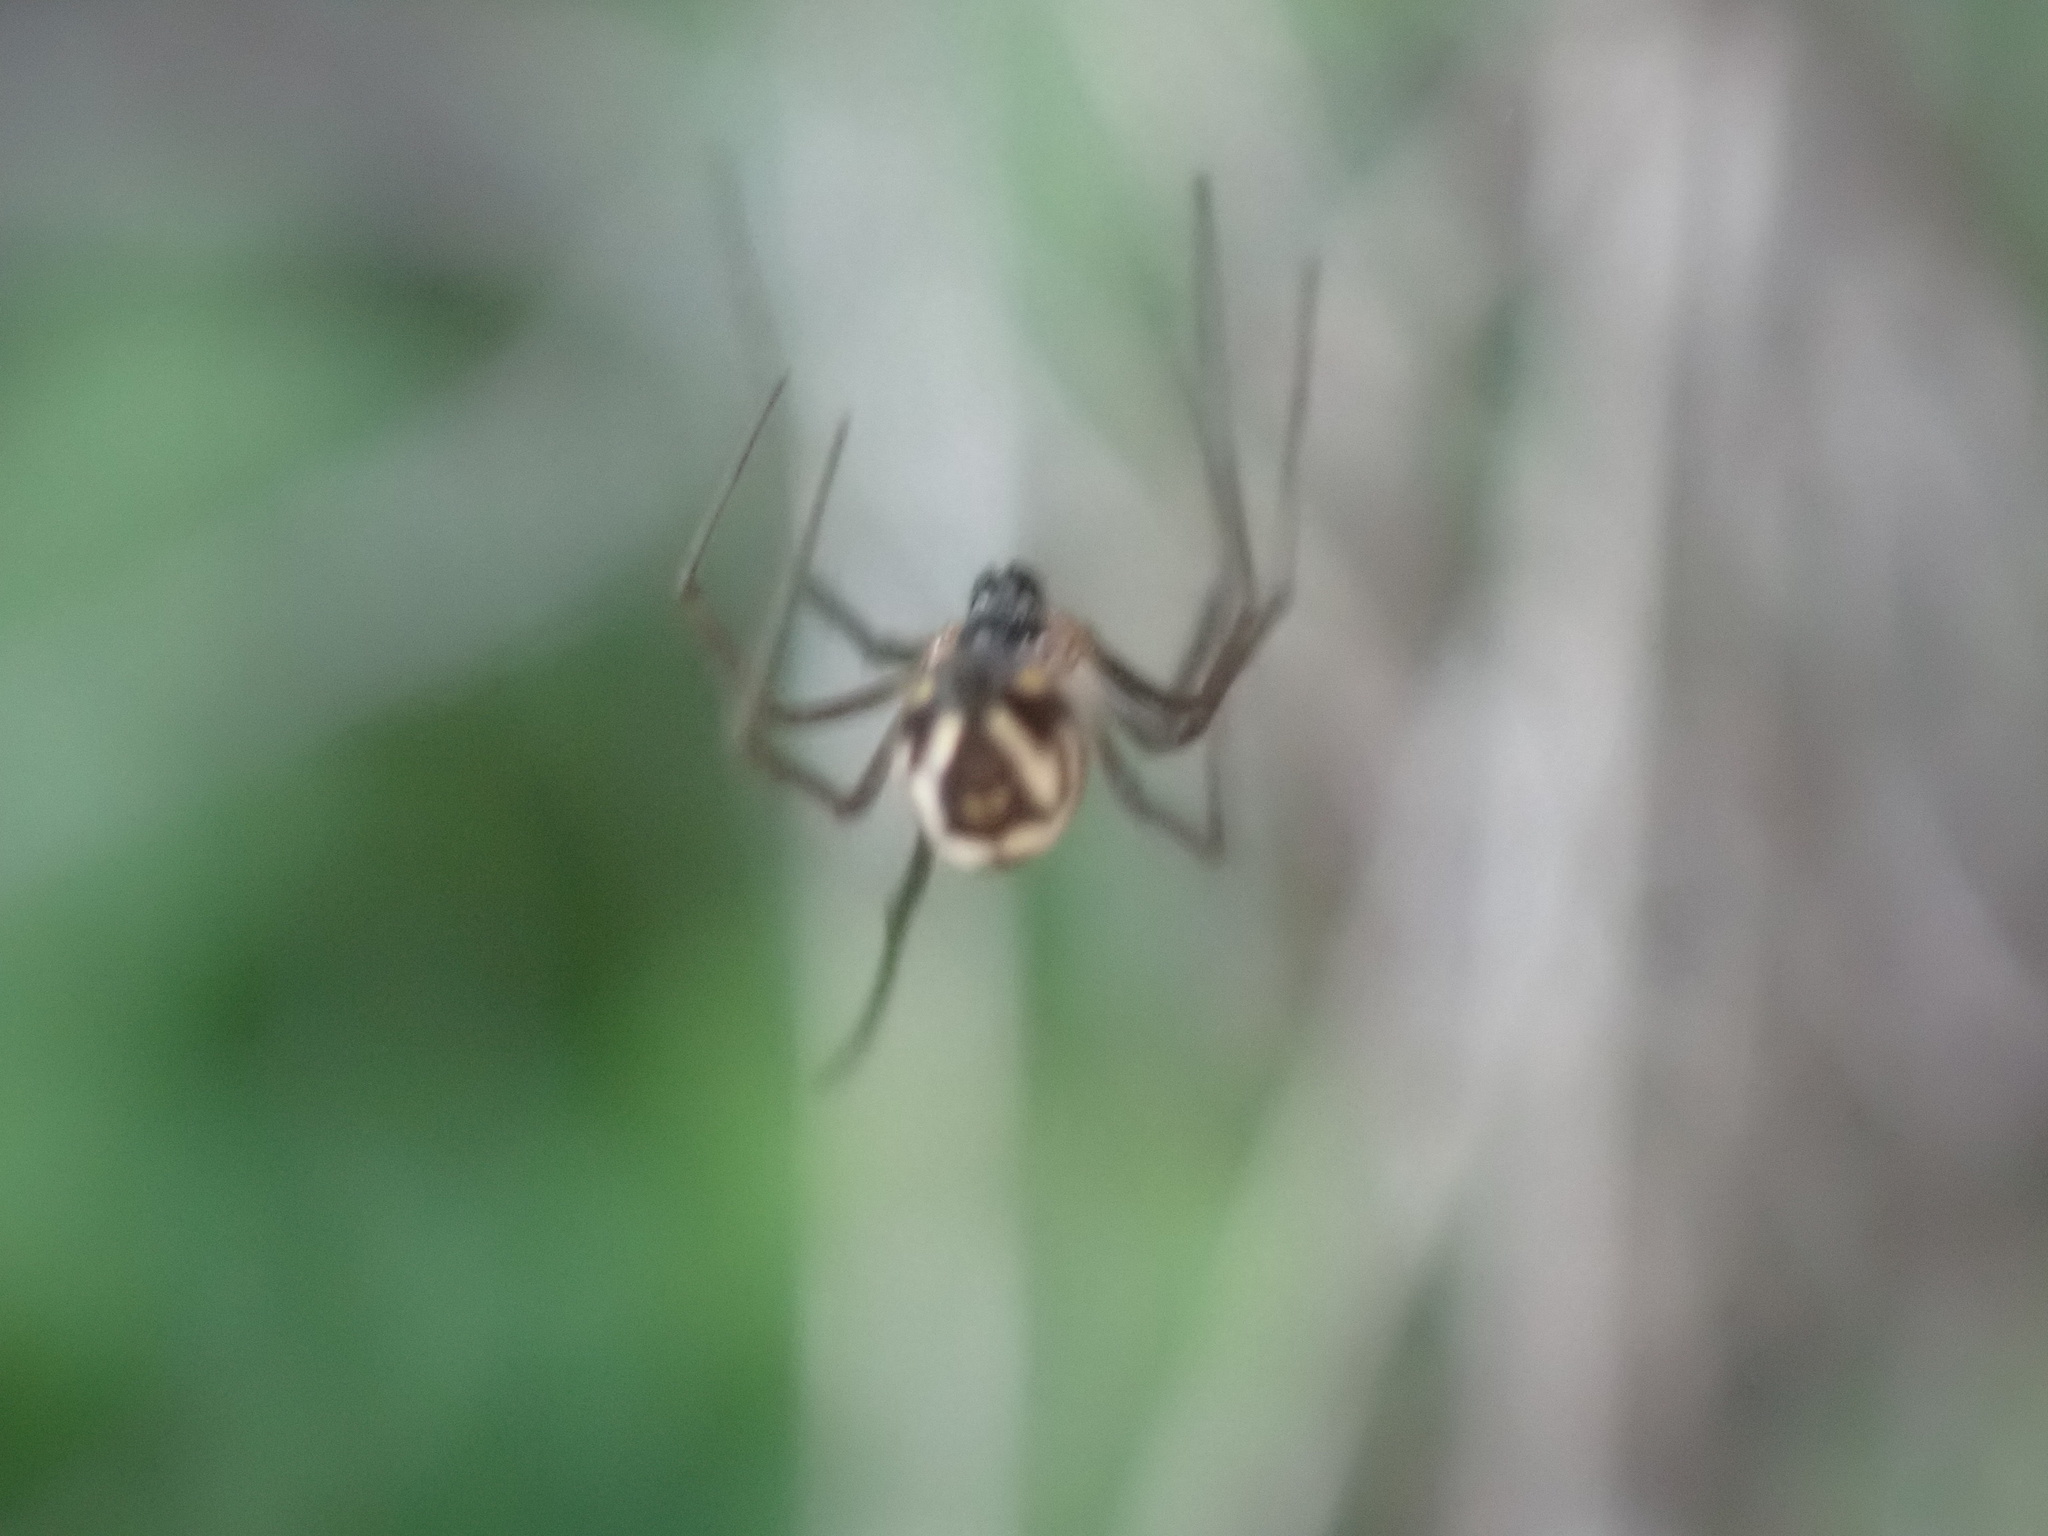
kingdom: Animalia
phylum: Arthropoda
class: Arachnida
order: Araneae
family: Linyphiidae
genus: Neriene
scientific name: Neriene radiata
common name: Filmy dome spider
